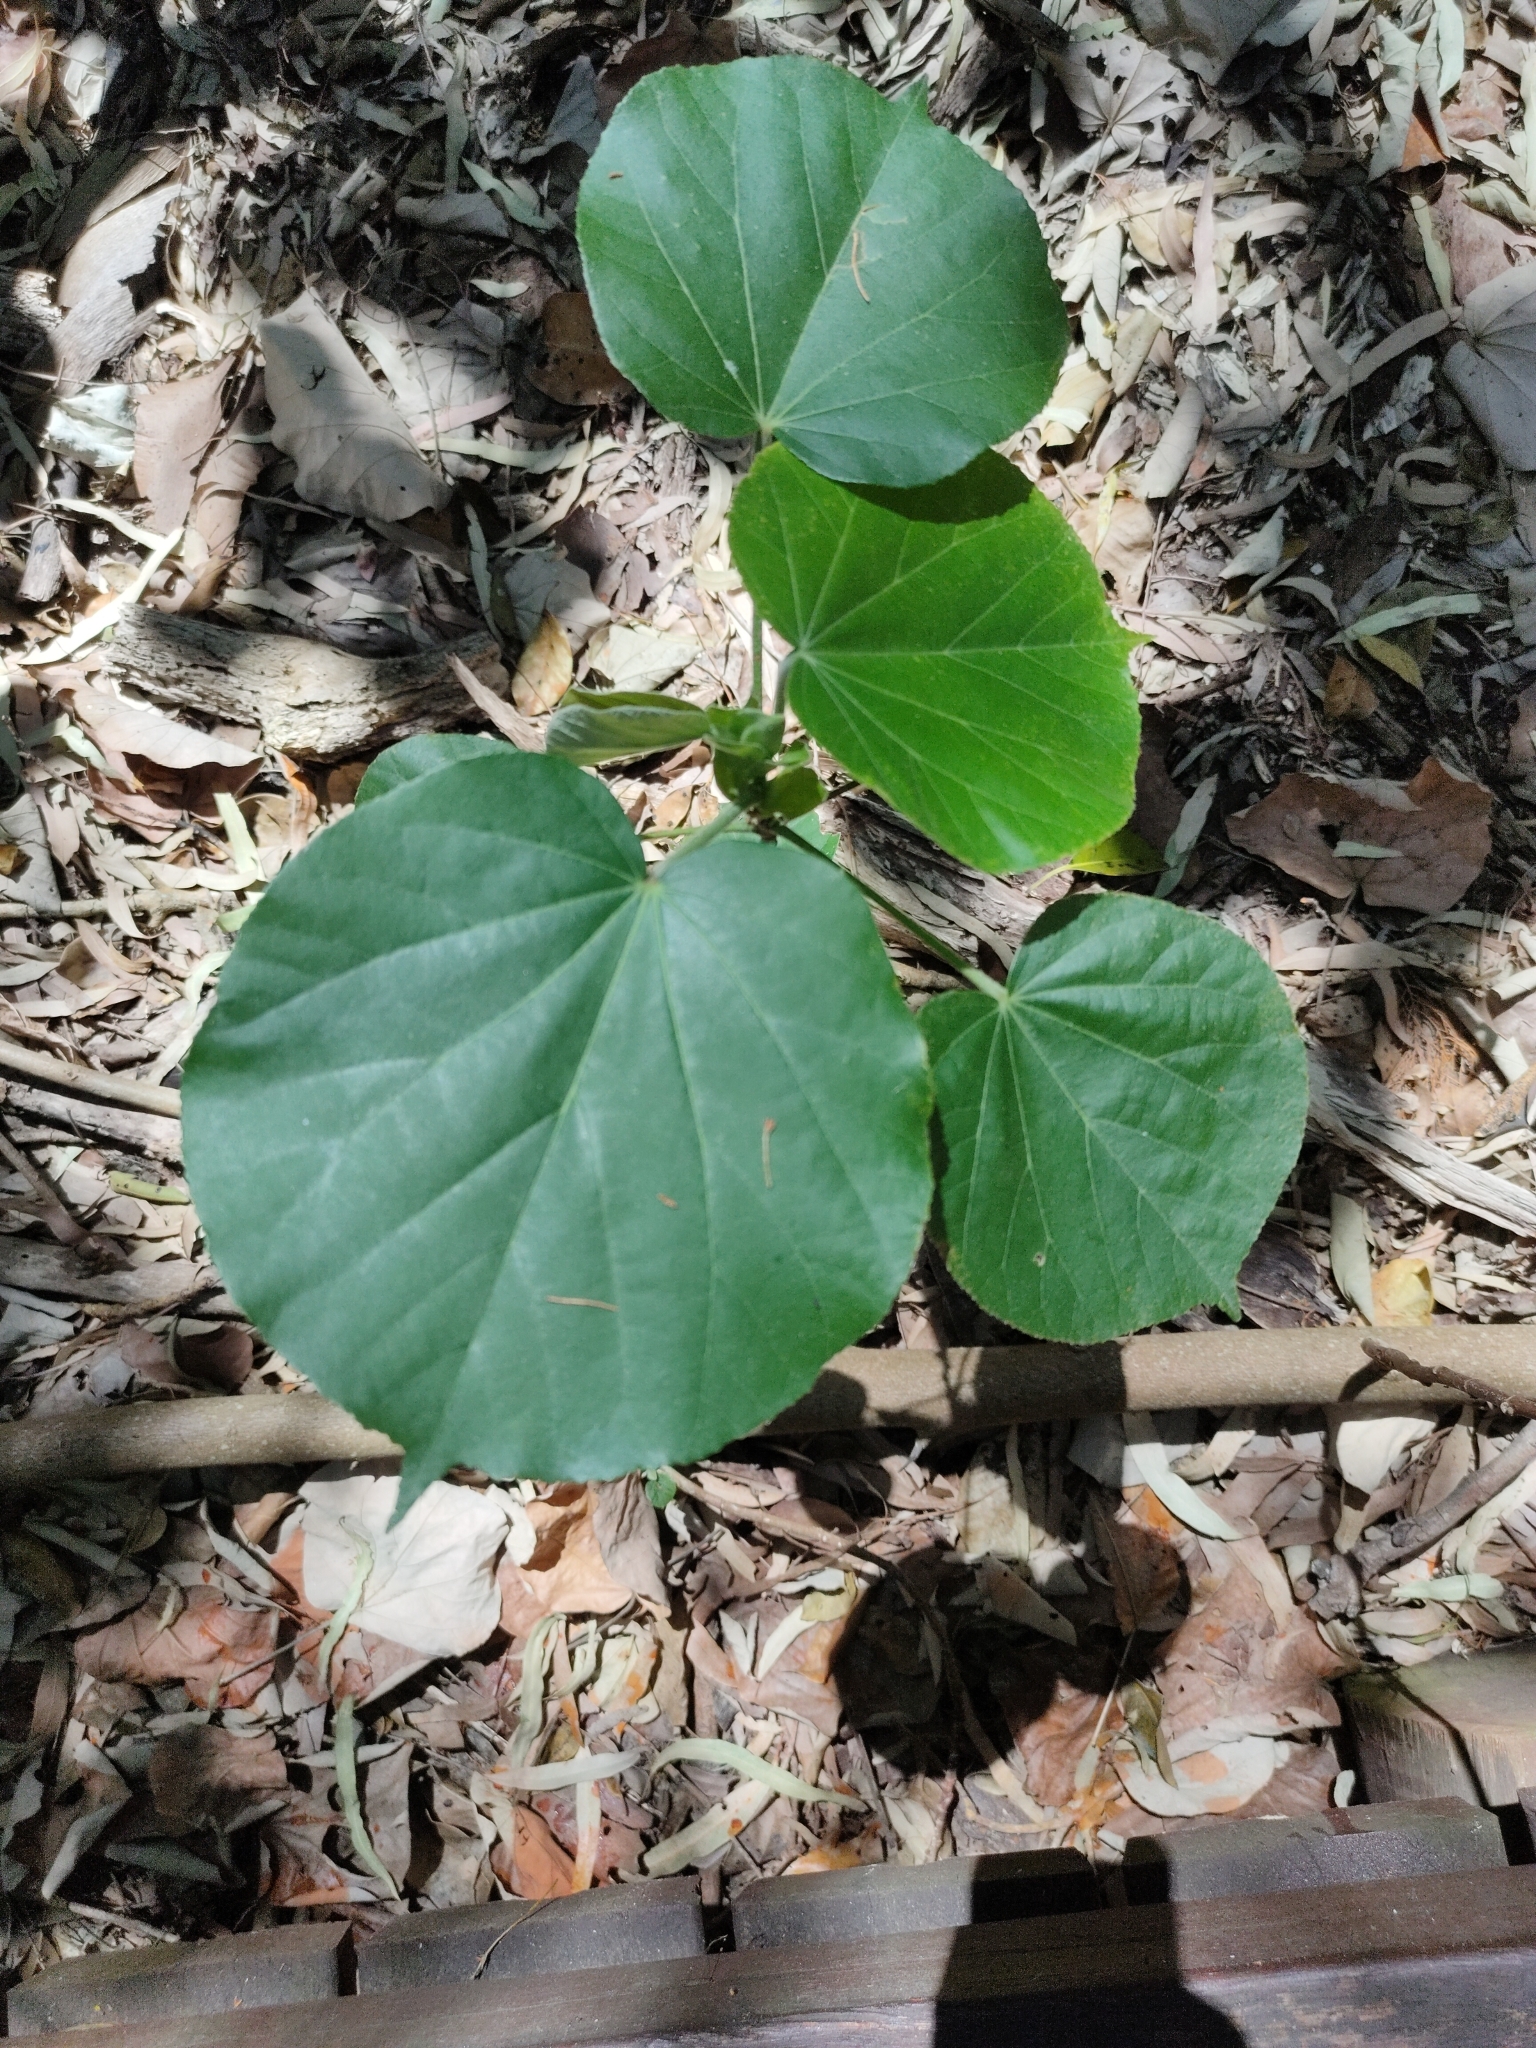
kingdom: Plantae
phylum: Tracheophyta
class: Magnoliopsida
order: Malvales
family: Malvaceae
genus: Talipariti
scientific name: Talipariti tiliaceum
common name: Sea hibiscus
